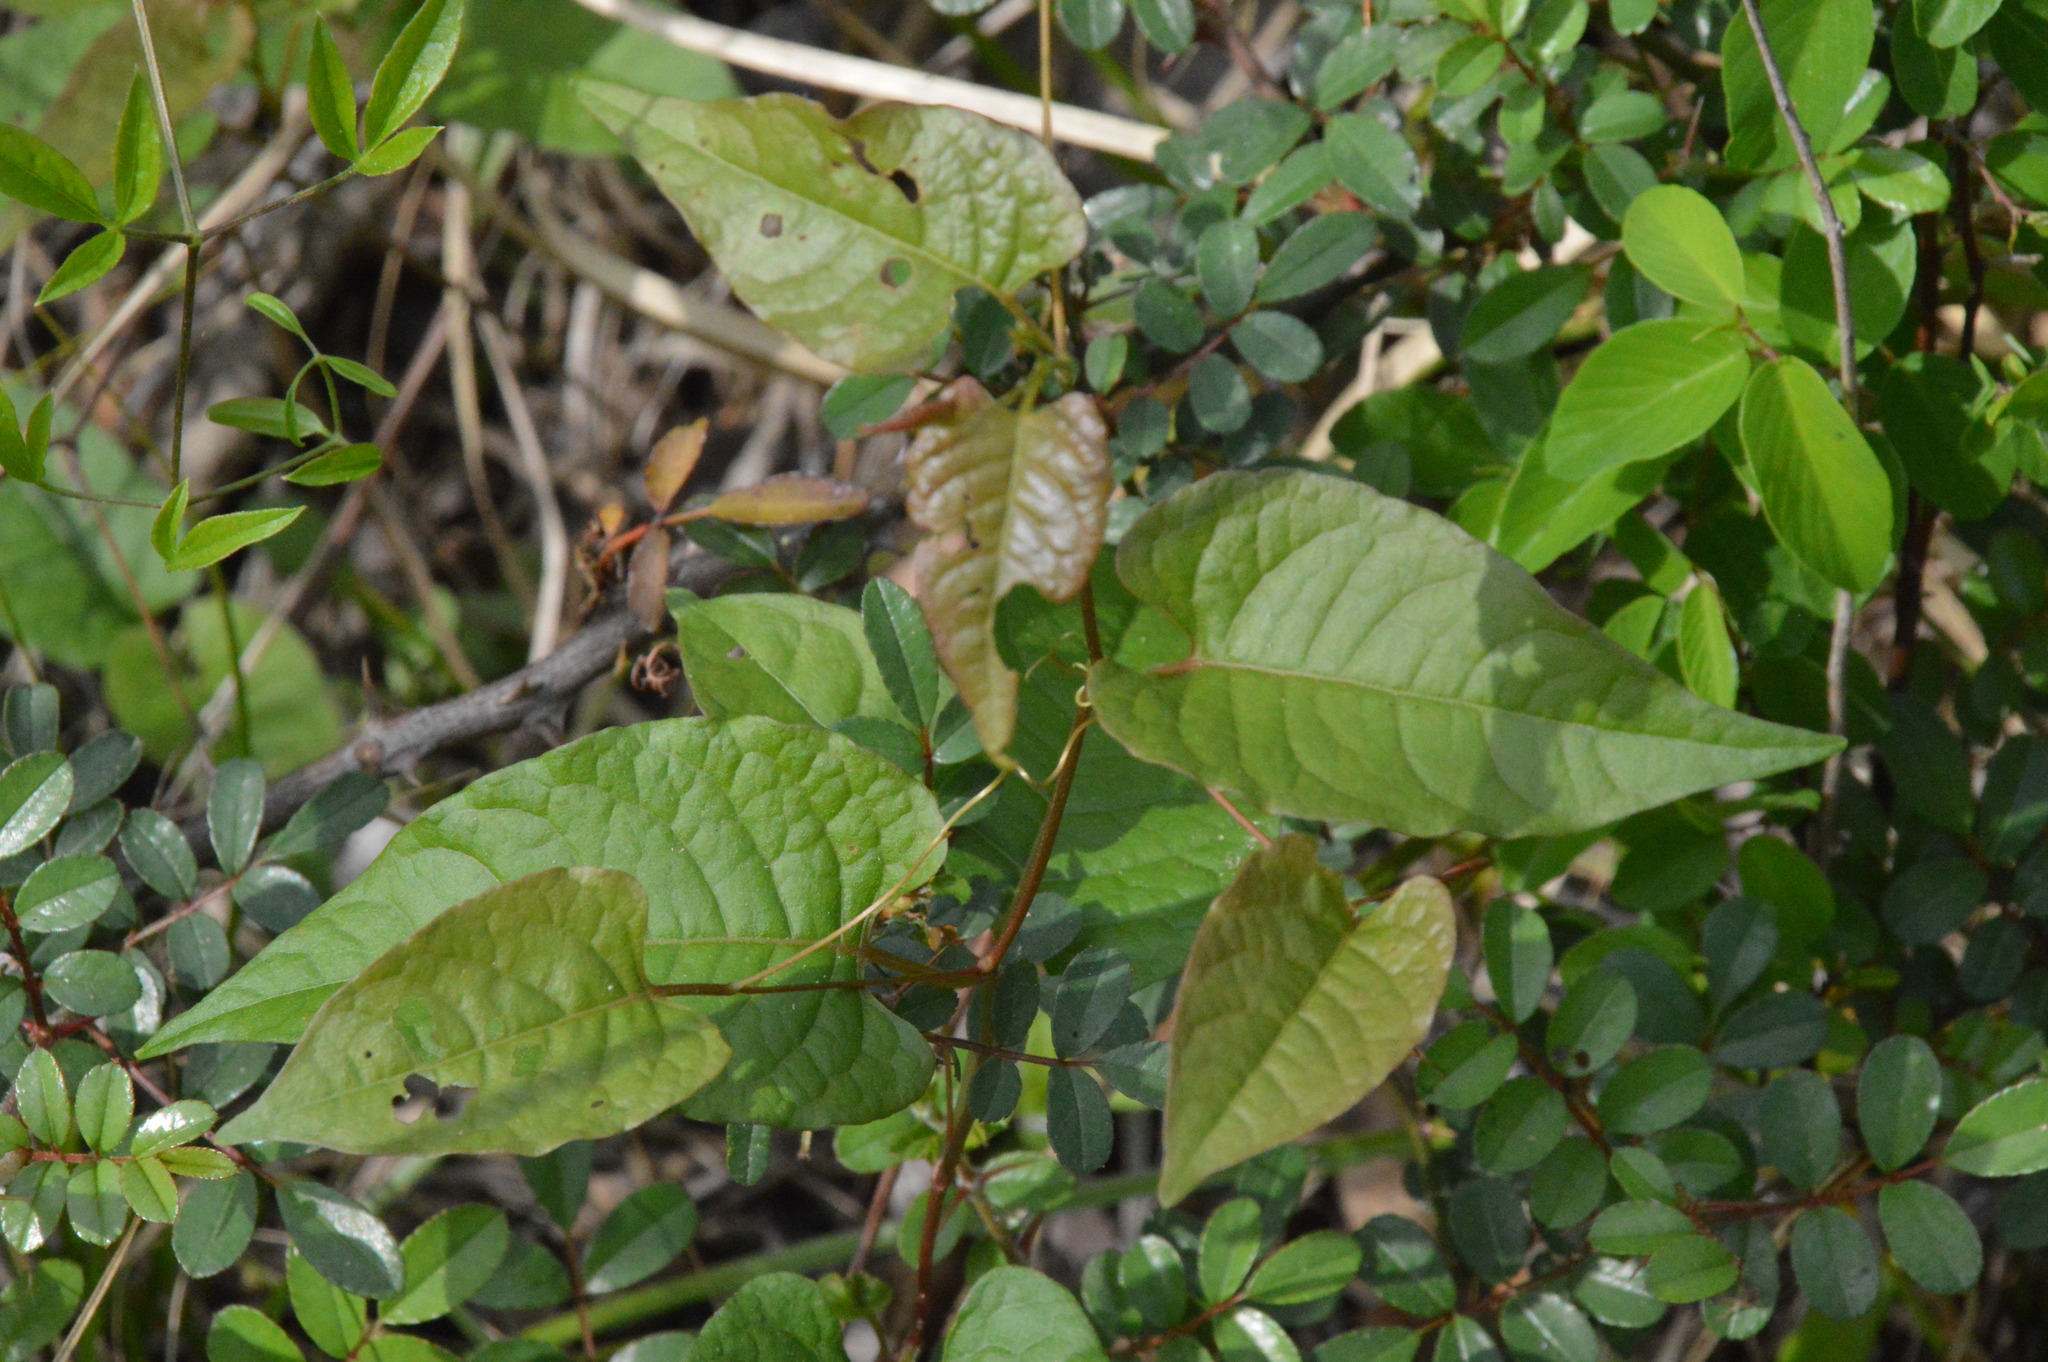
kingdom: Plantae
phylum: Tracheophyta
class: Magnoliopsida
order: Caryophyllales
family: Polygonaceae
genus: Brunnichia
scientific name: Brunnichia ovata
